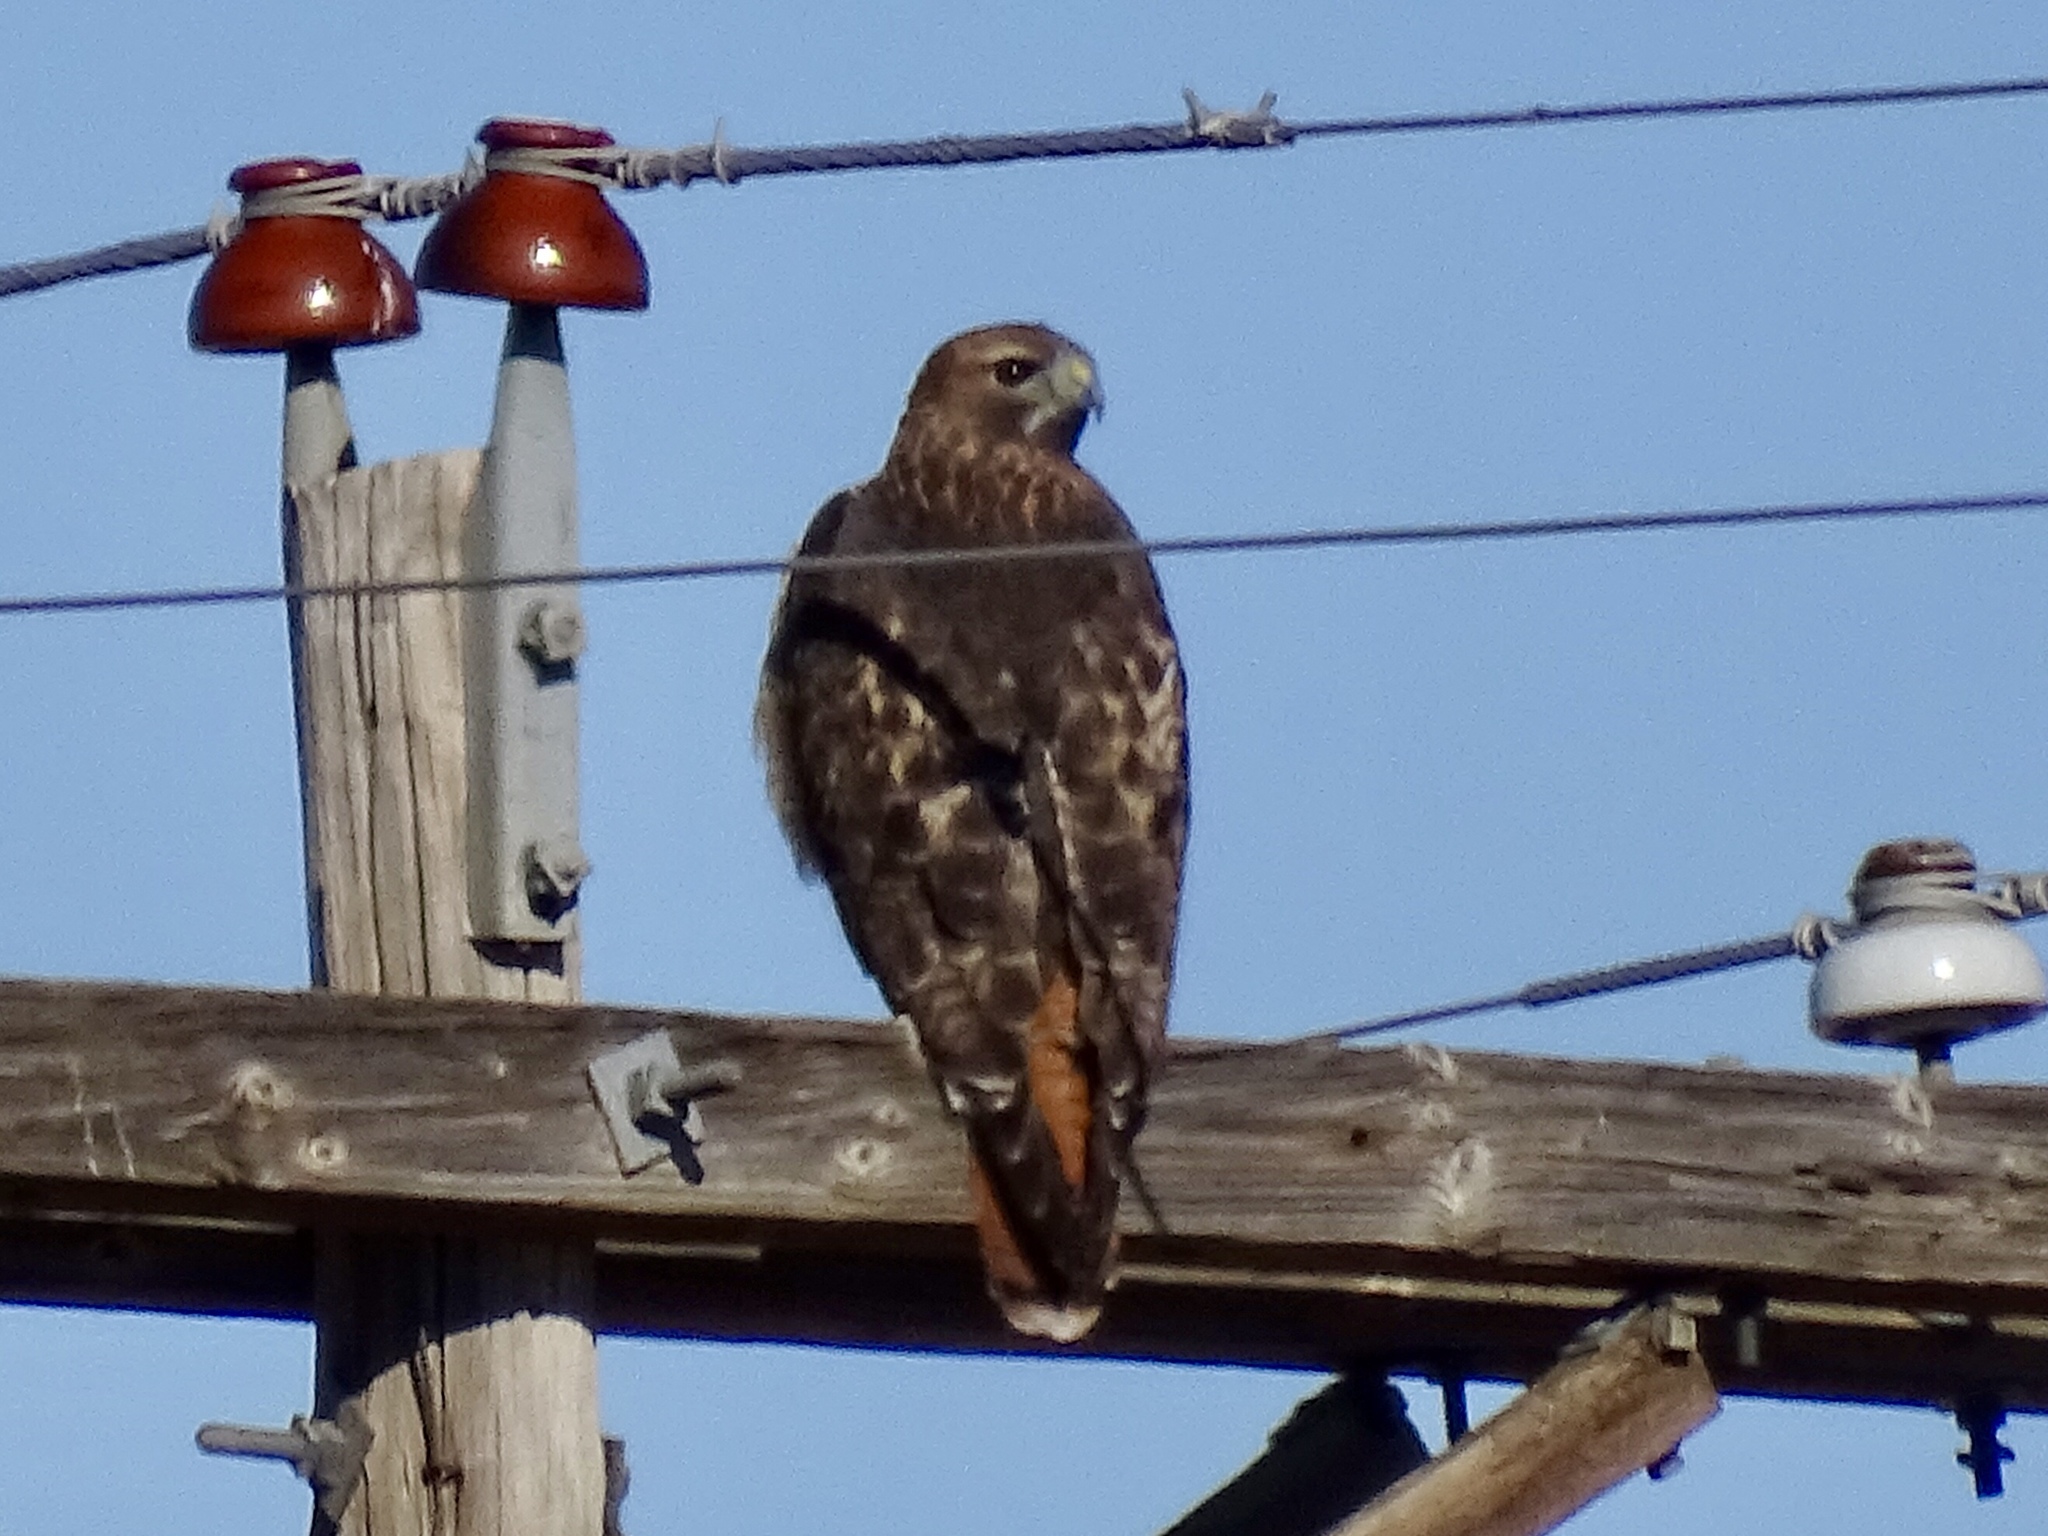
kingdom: Animalia
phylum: Chordata
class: Aves
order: Accipitriformes
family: Accipitridae
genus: Buteo
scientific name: Buteo jamaicensis
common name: Red-tailed hawk
